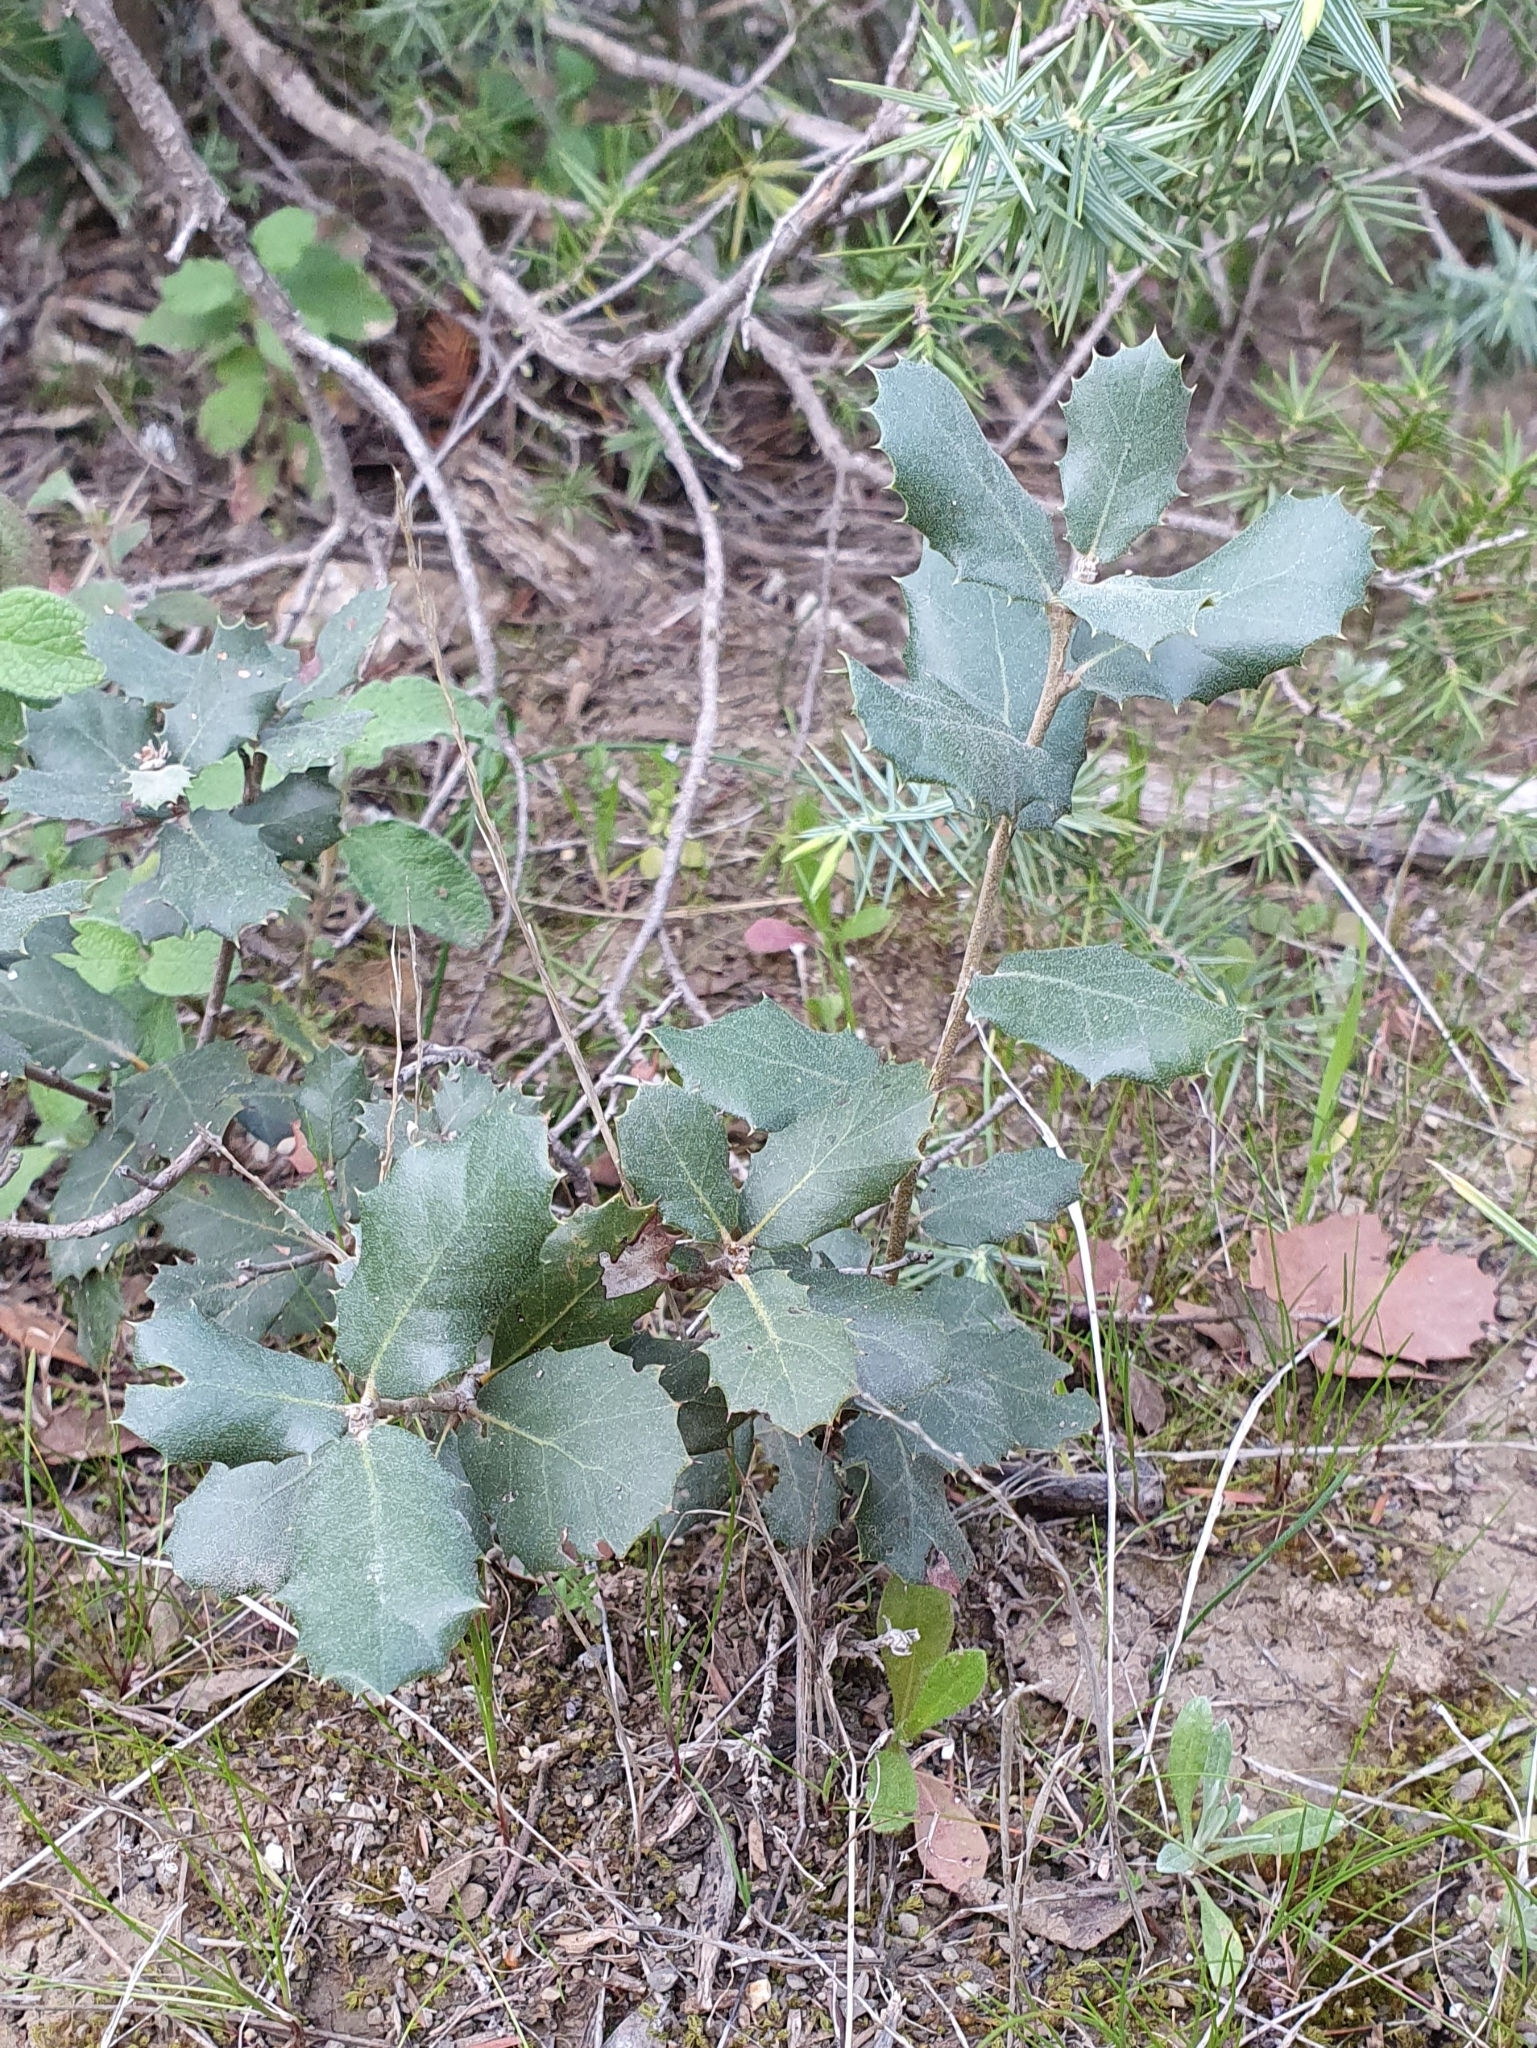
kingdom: Plantae
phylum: Tracheophyta
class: Magnoliopsida
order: Fagales
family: Fagaceae
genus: Quercus
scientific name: Quercus rotundifolia
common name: Holm oak
